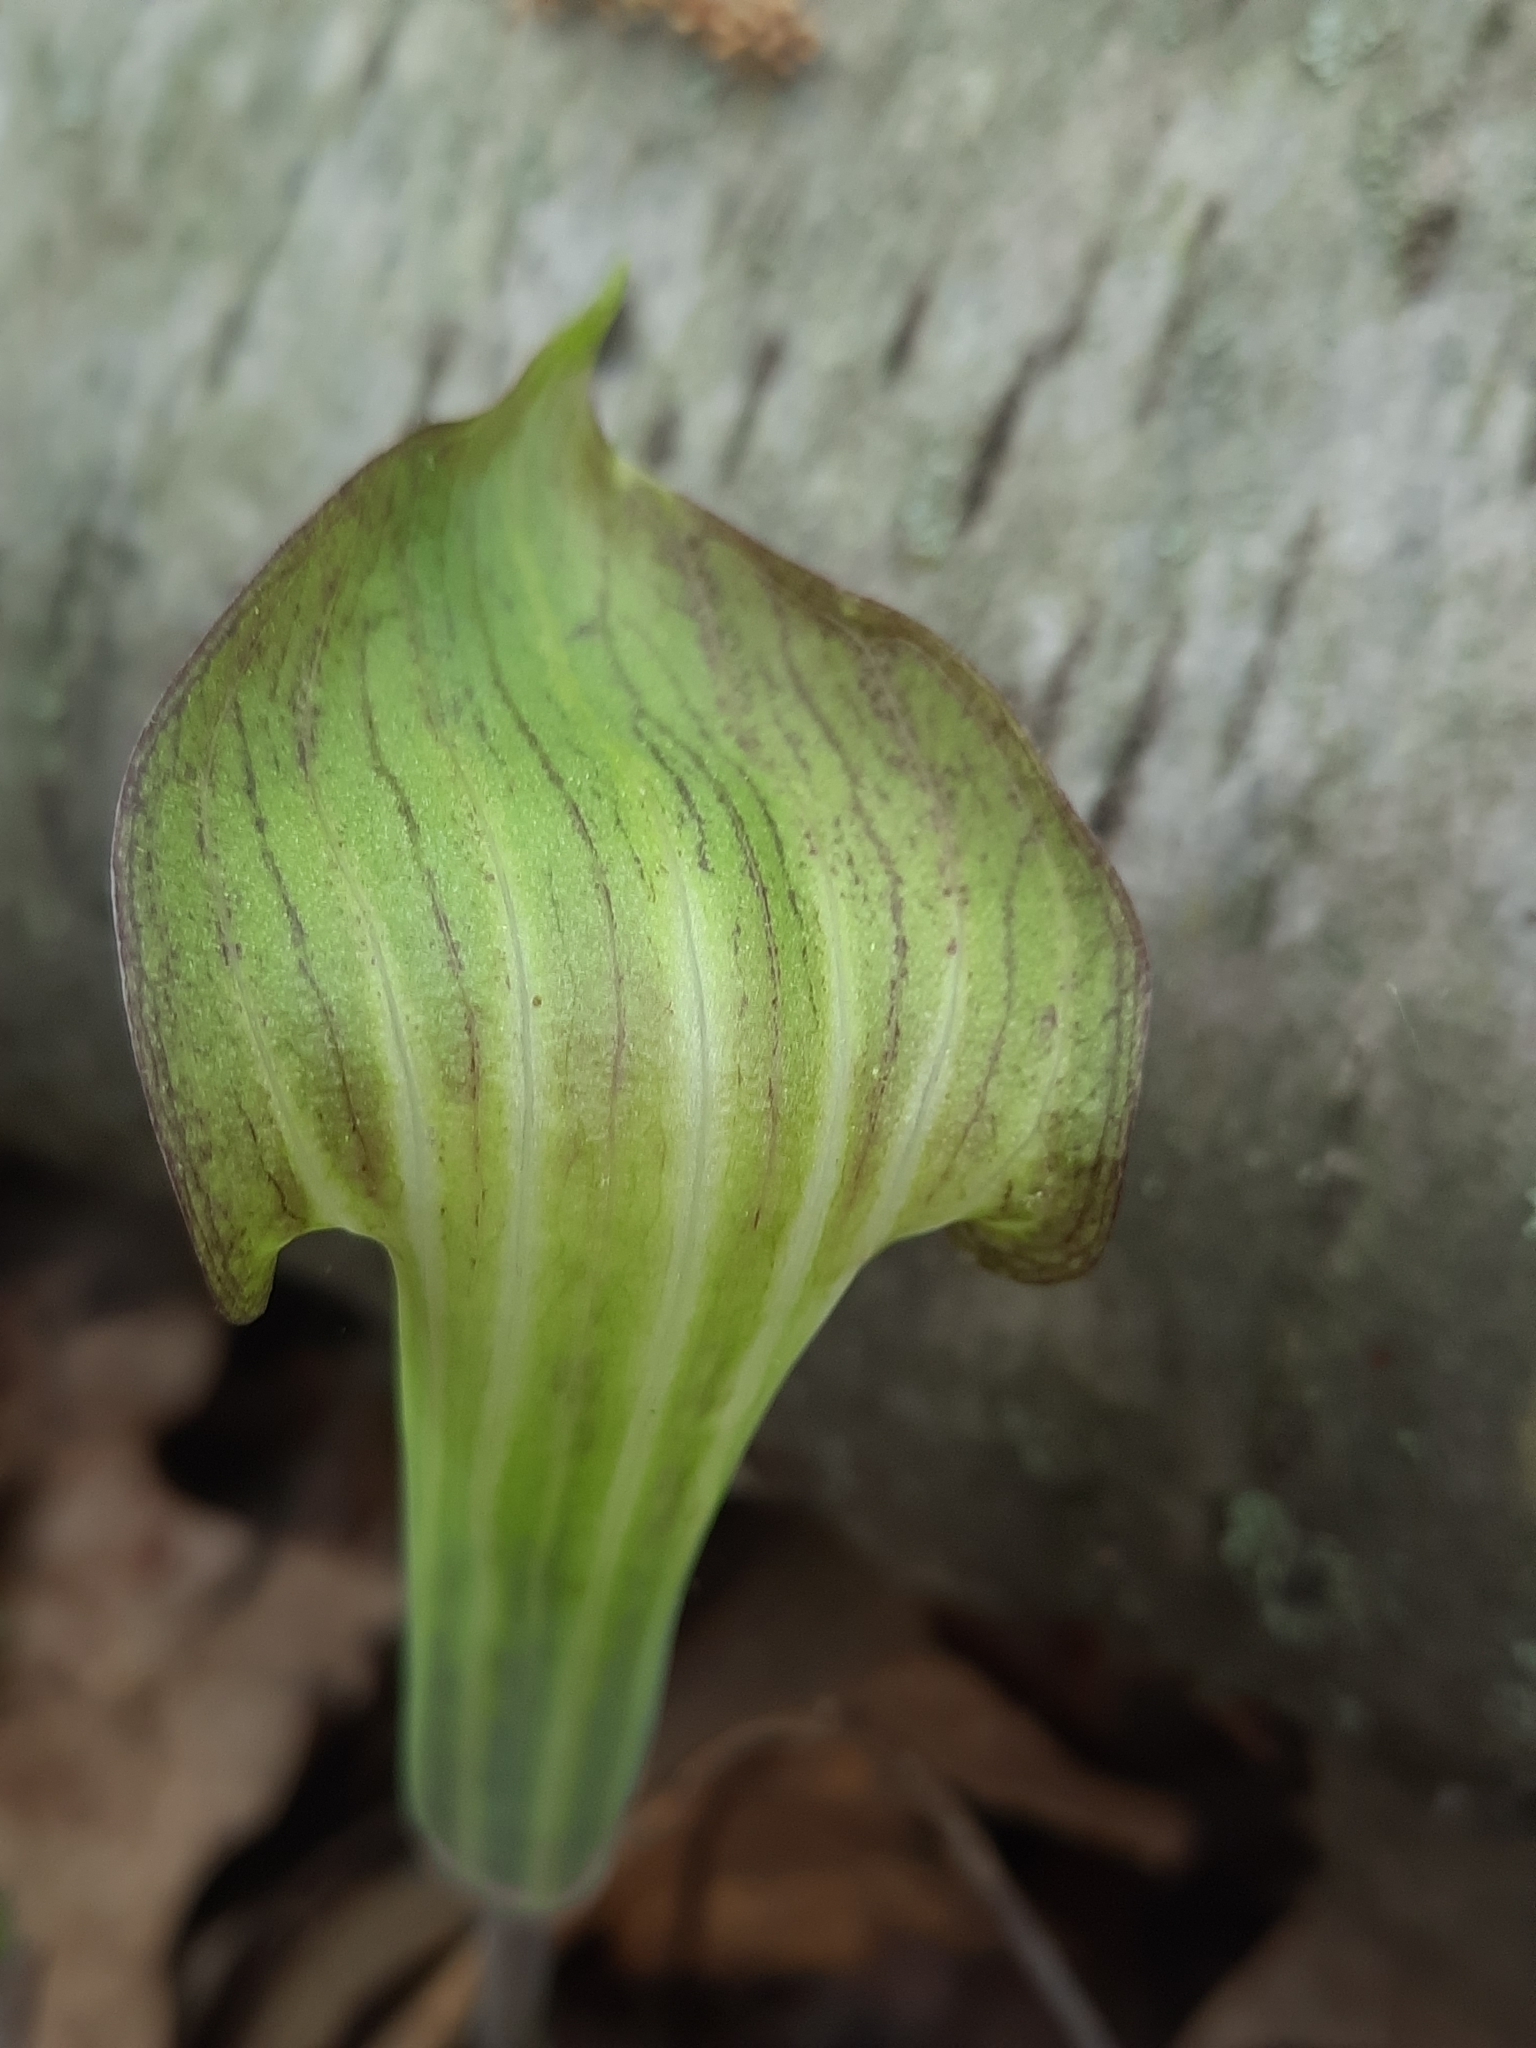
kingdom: Plantae
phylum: Tracheophyta
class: Liliopsida
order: Alismatales
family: Araceae
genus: Arisaema
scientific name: Arisaema triphyllum
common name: Jack-in-the-pulpit
